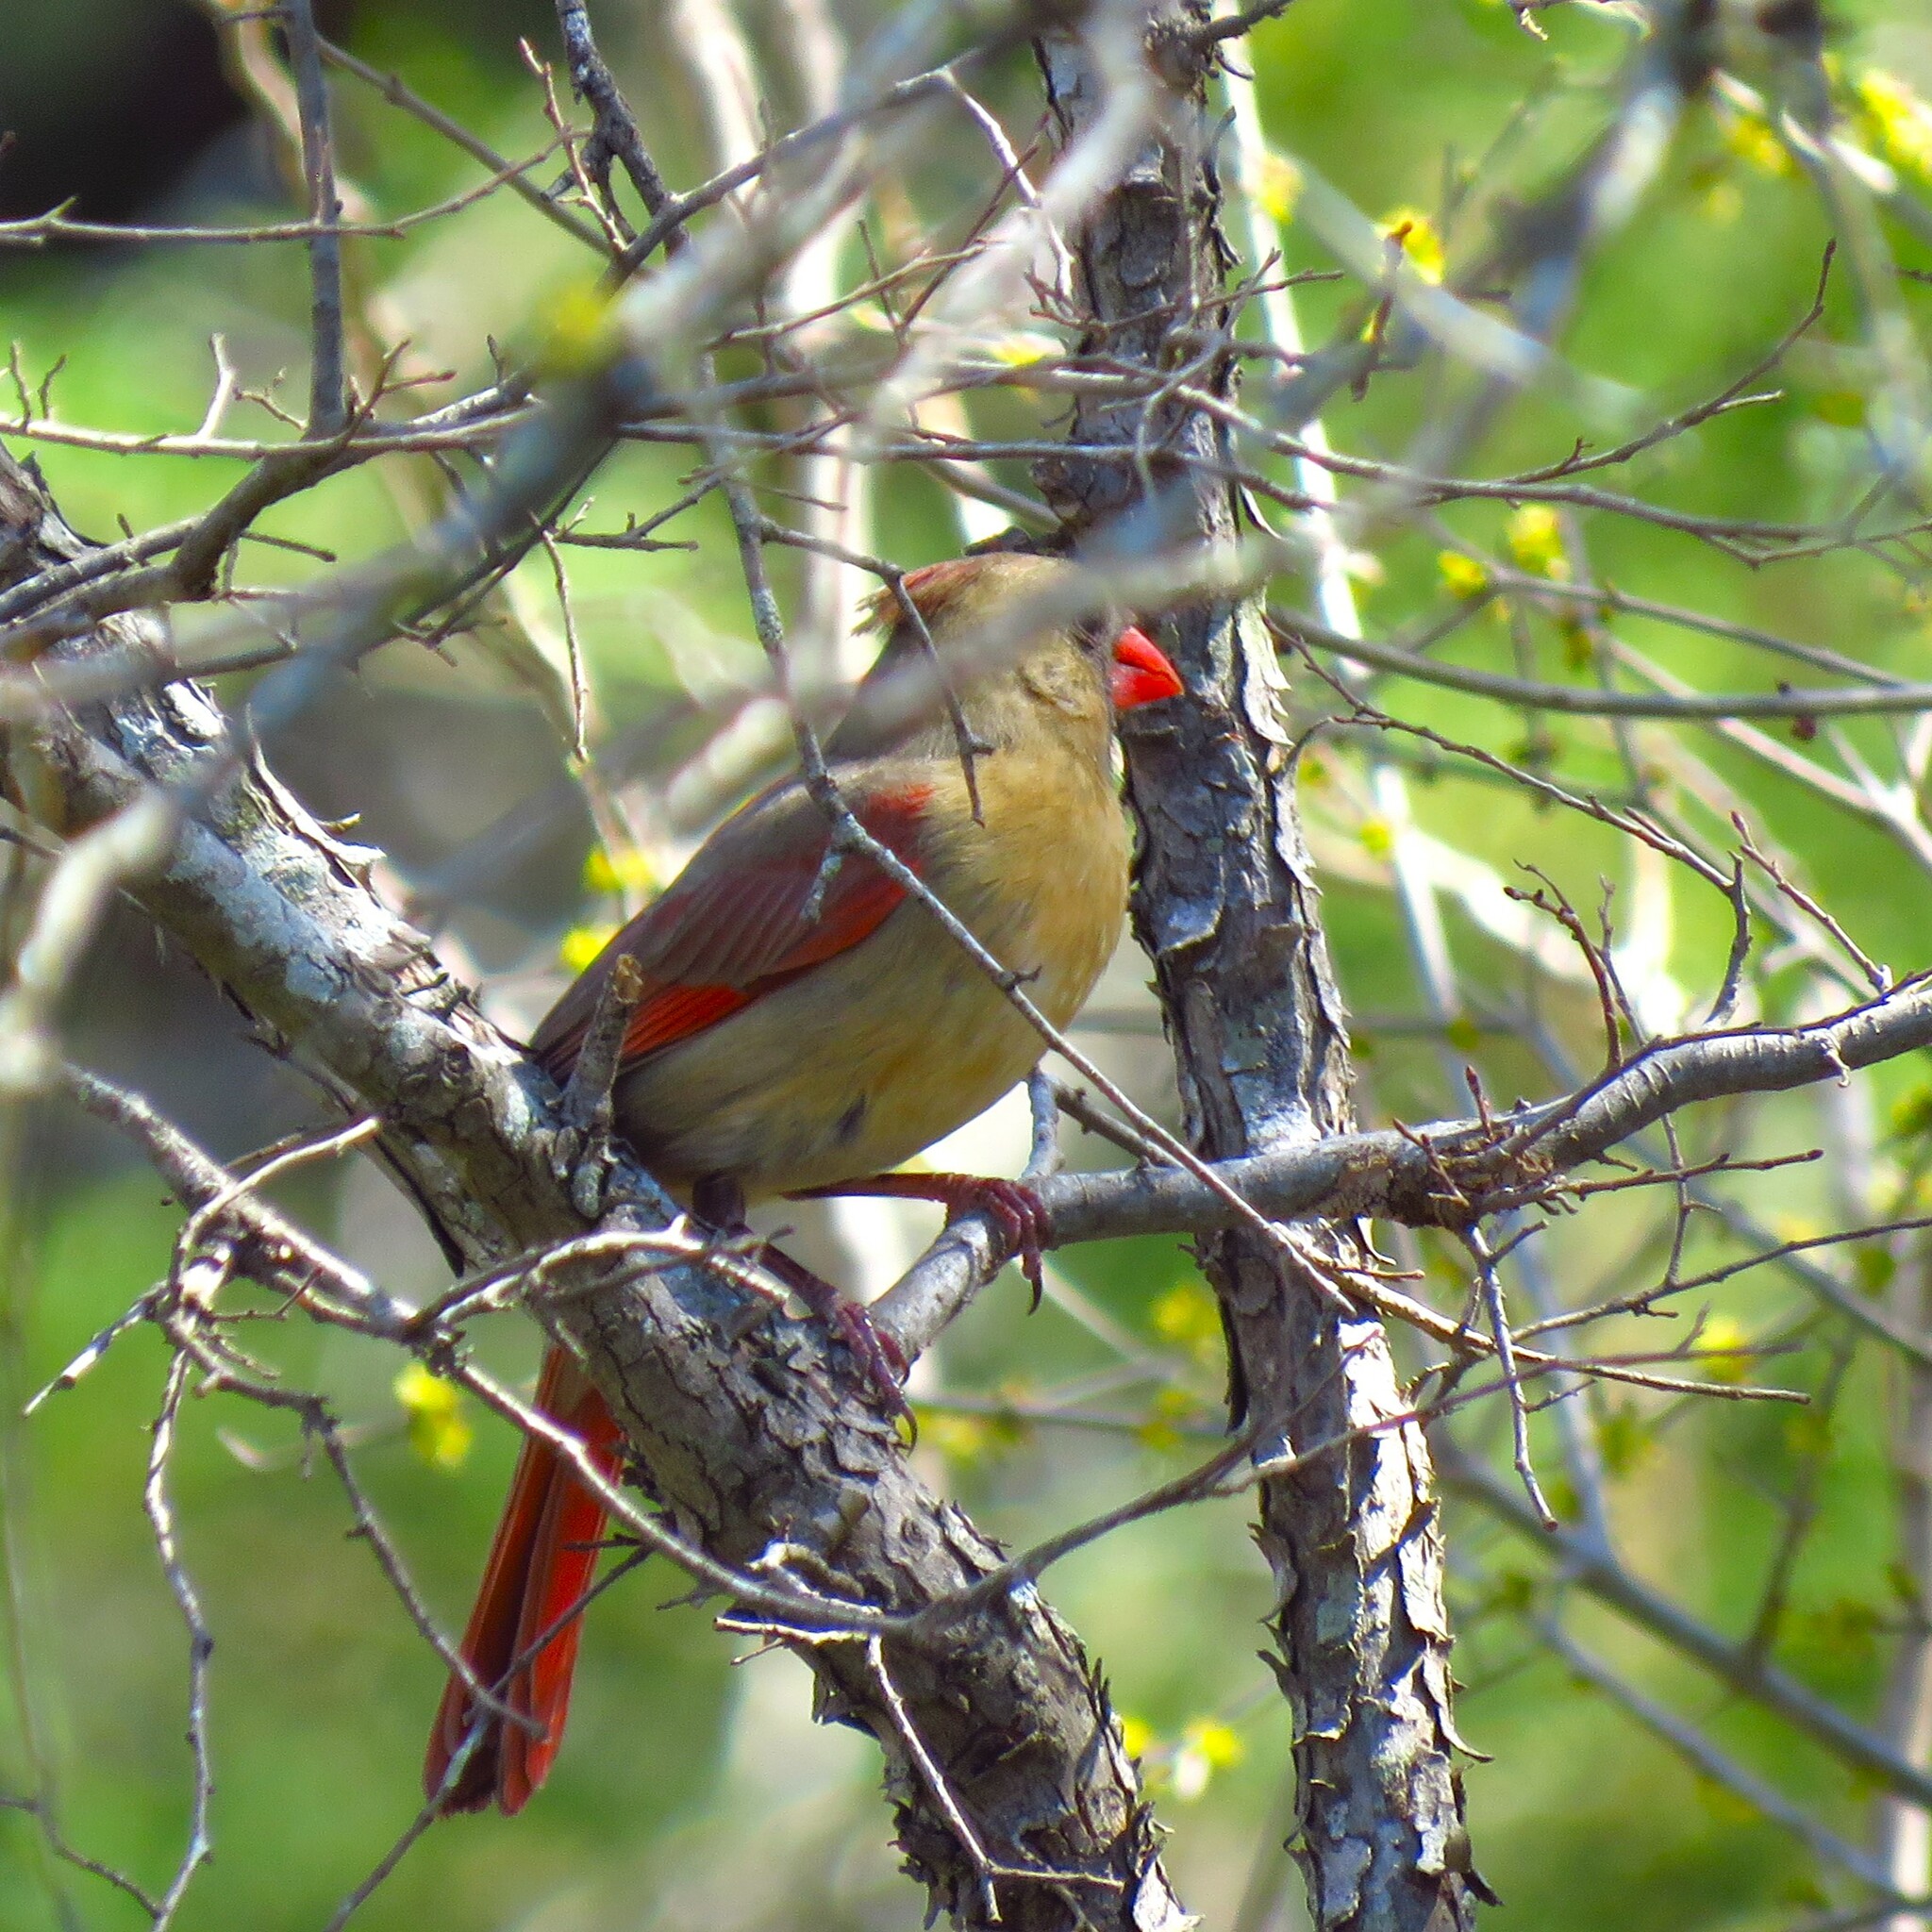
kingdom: Animalia
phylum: Chordata
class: Aves
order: Passeriformes
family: Cardinalidae
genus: Cardinalis
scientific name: Cardinalis cardinalis
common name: Northern cardinal
